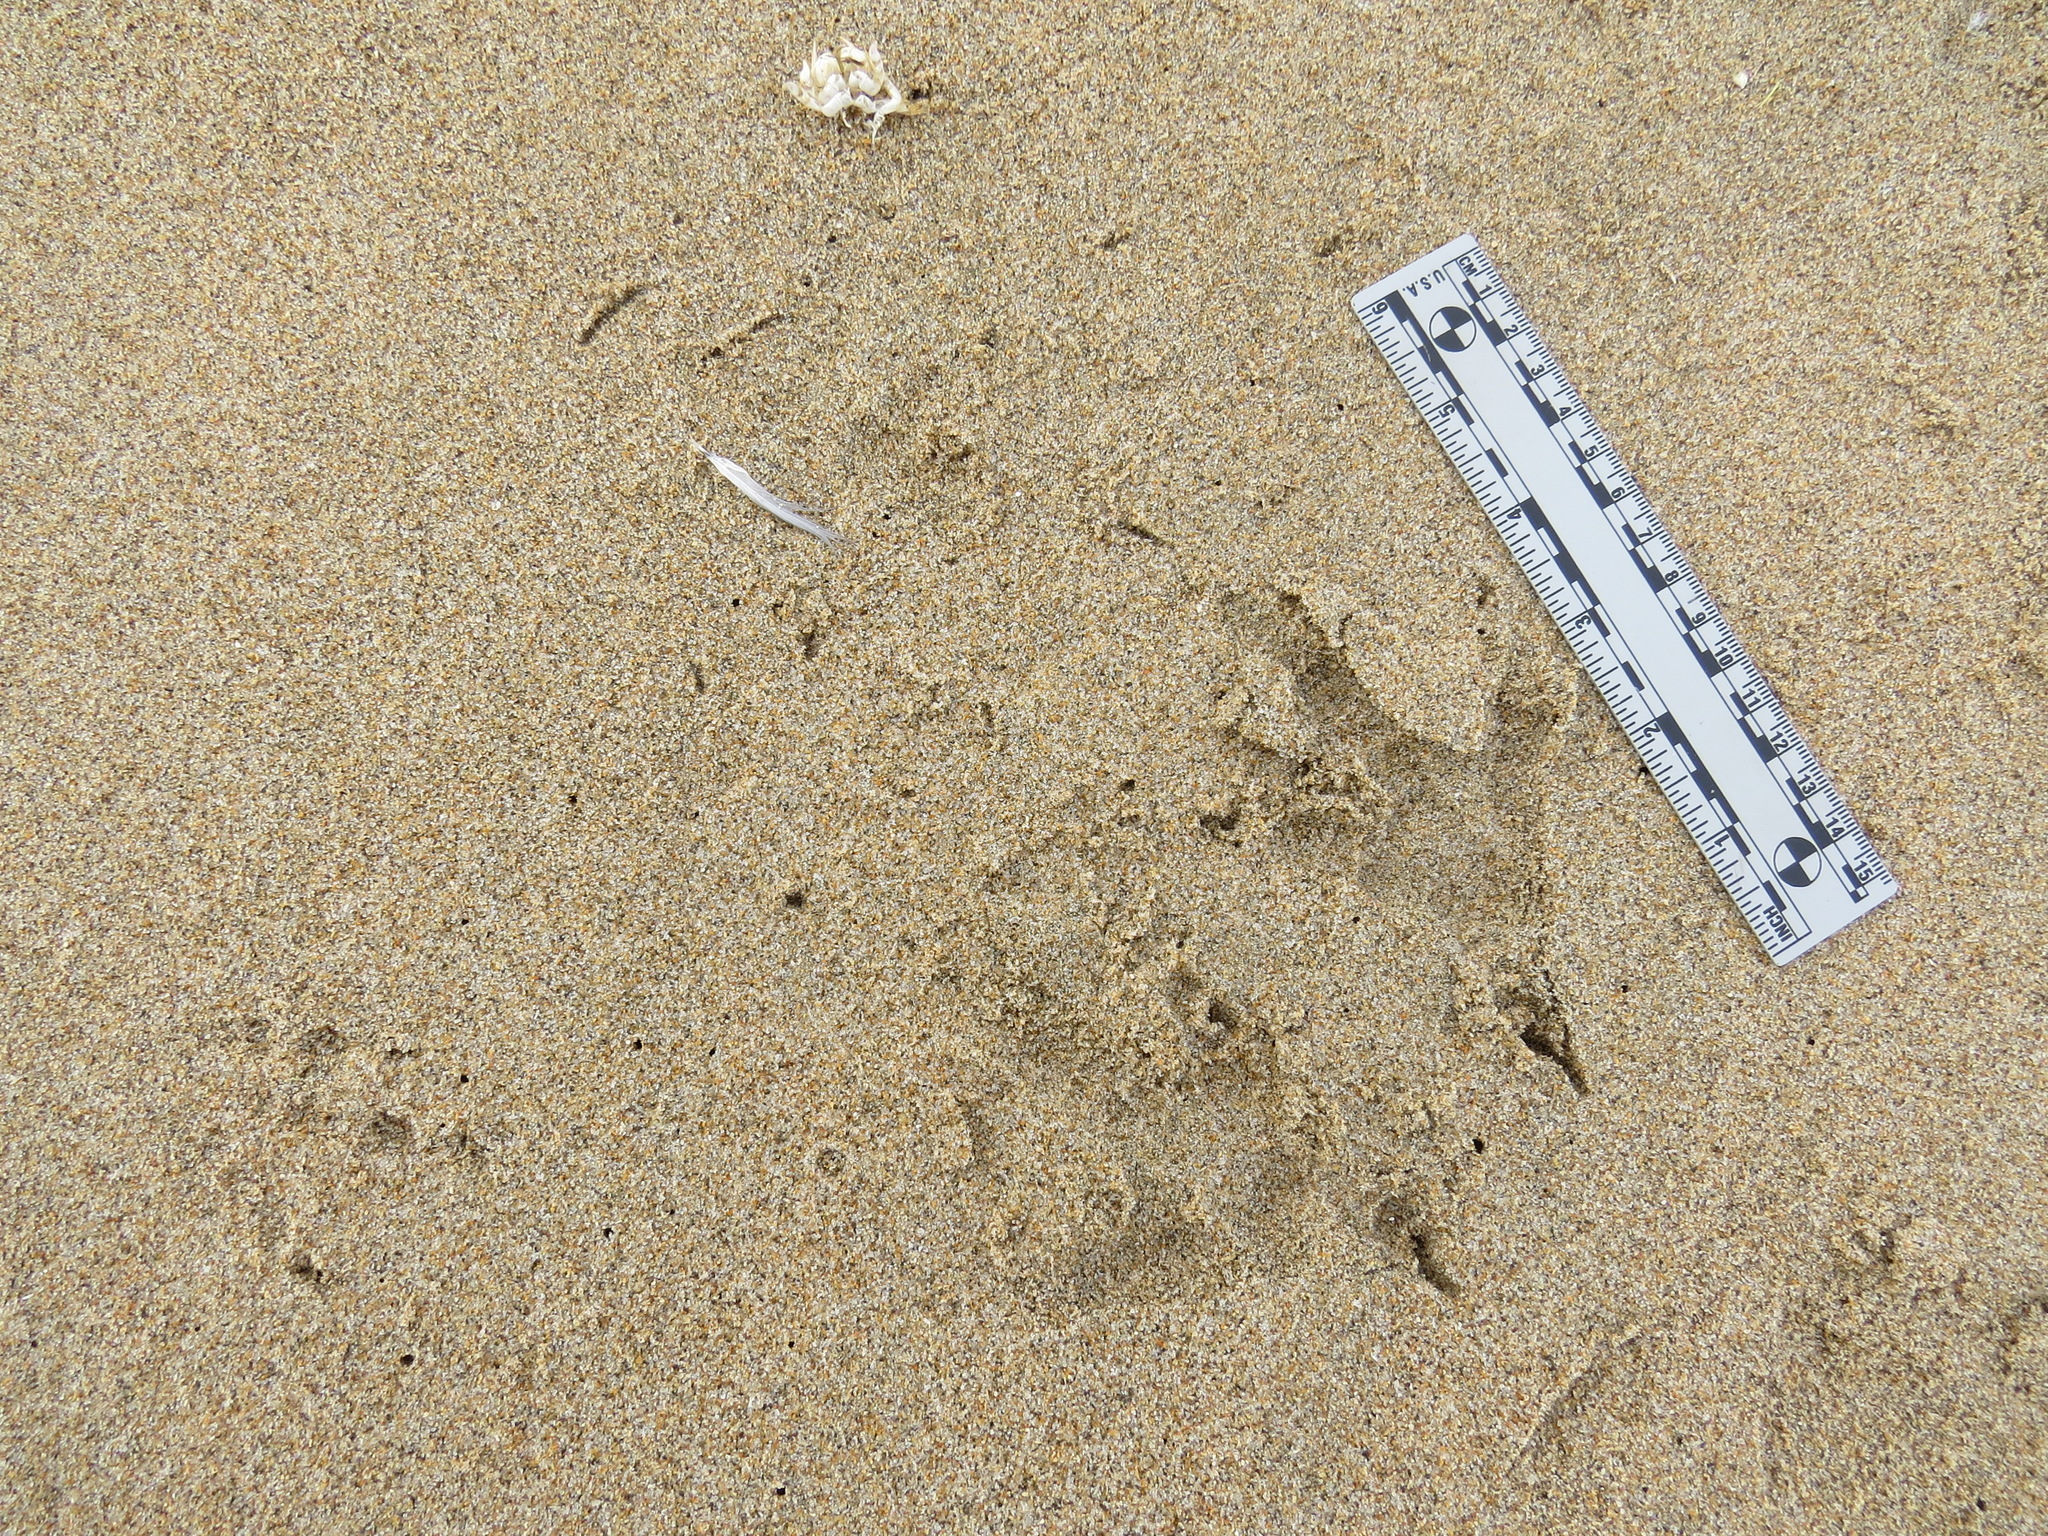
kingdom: Animalia
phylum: Chordata
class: Aves
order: Accipitriformes
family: Cathartidae
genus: Cathartes
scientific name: Cathartes aura
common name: Turkey vulture
